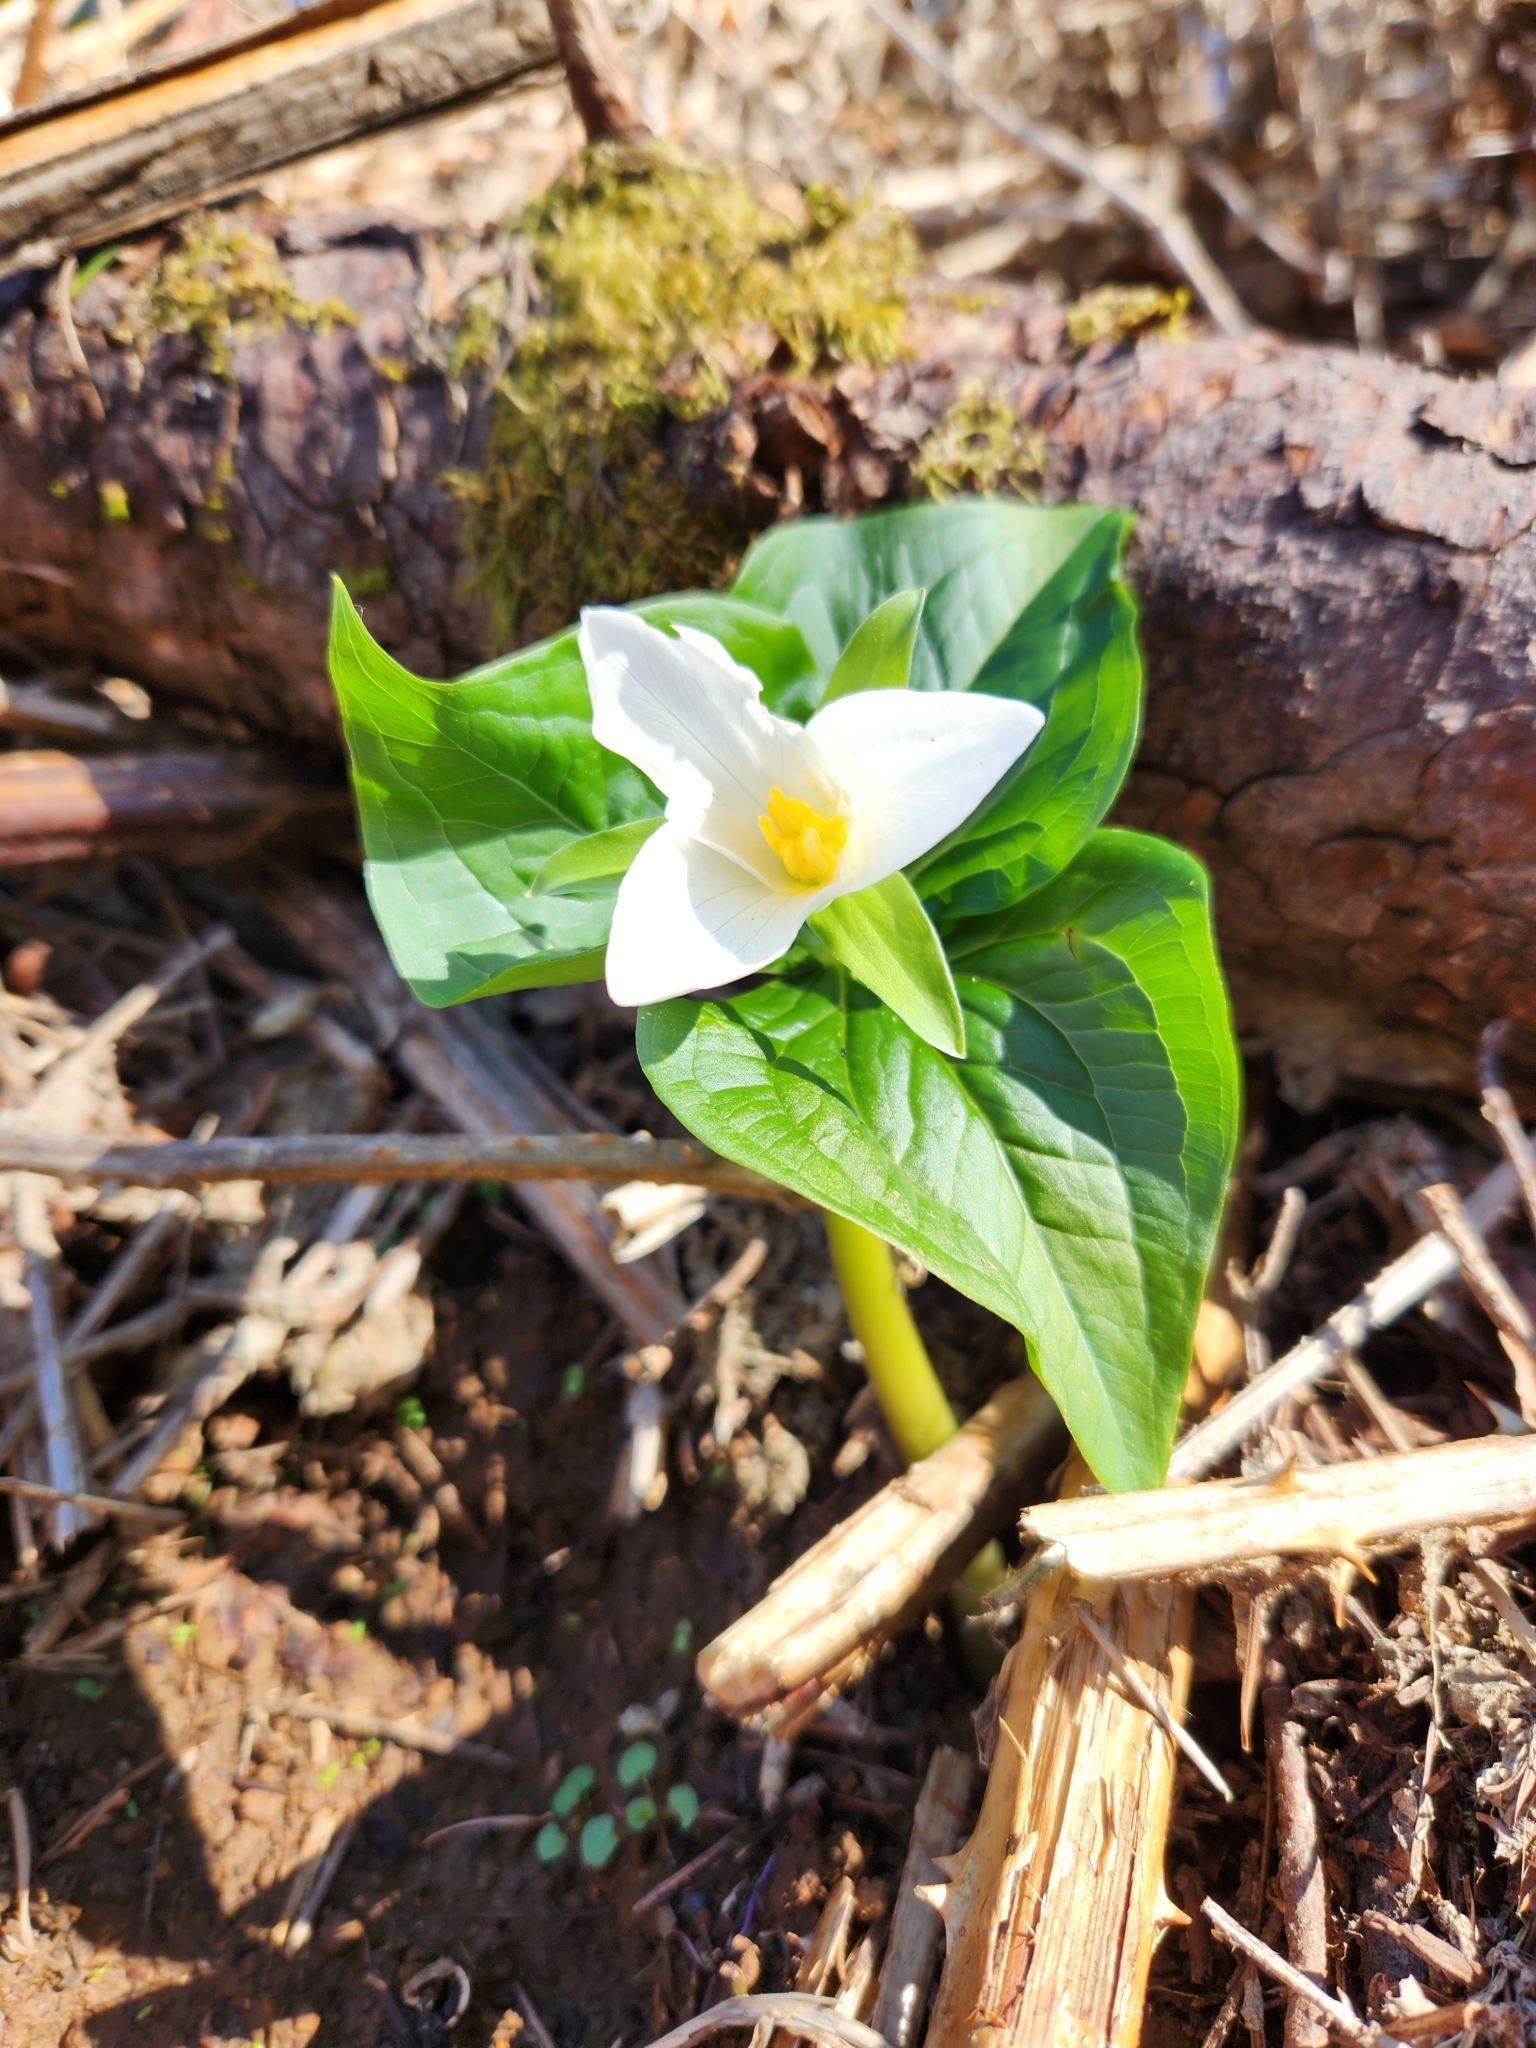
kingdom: Plantae
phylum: Tracheophyta
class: Liliopsida
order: Liliales
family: Melanthiaceae
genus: Trillium
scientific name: Trillium ovatum
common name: Pacific trillium
